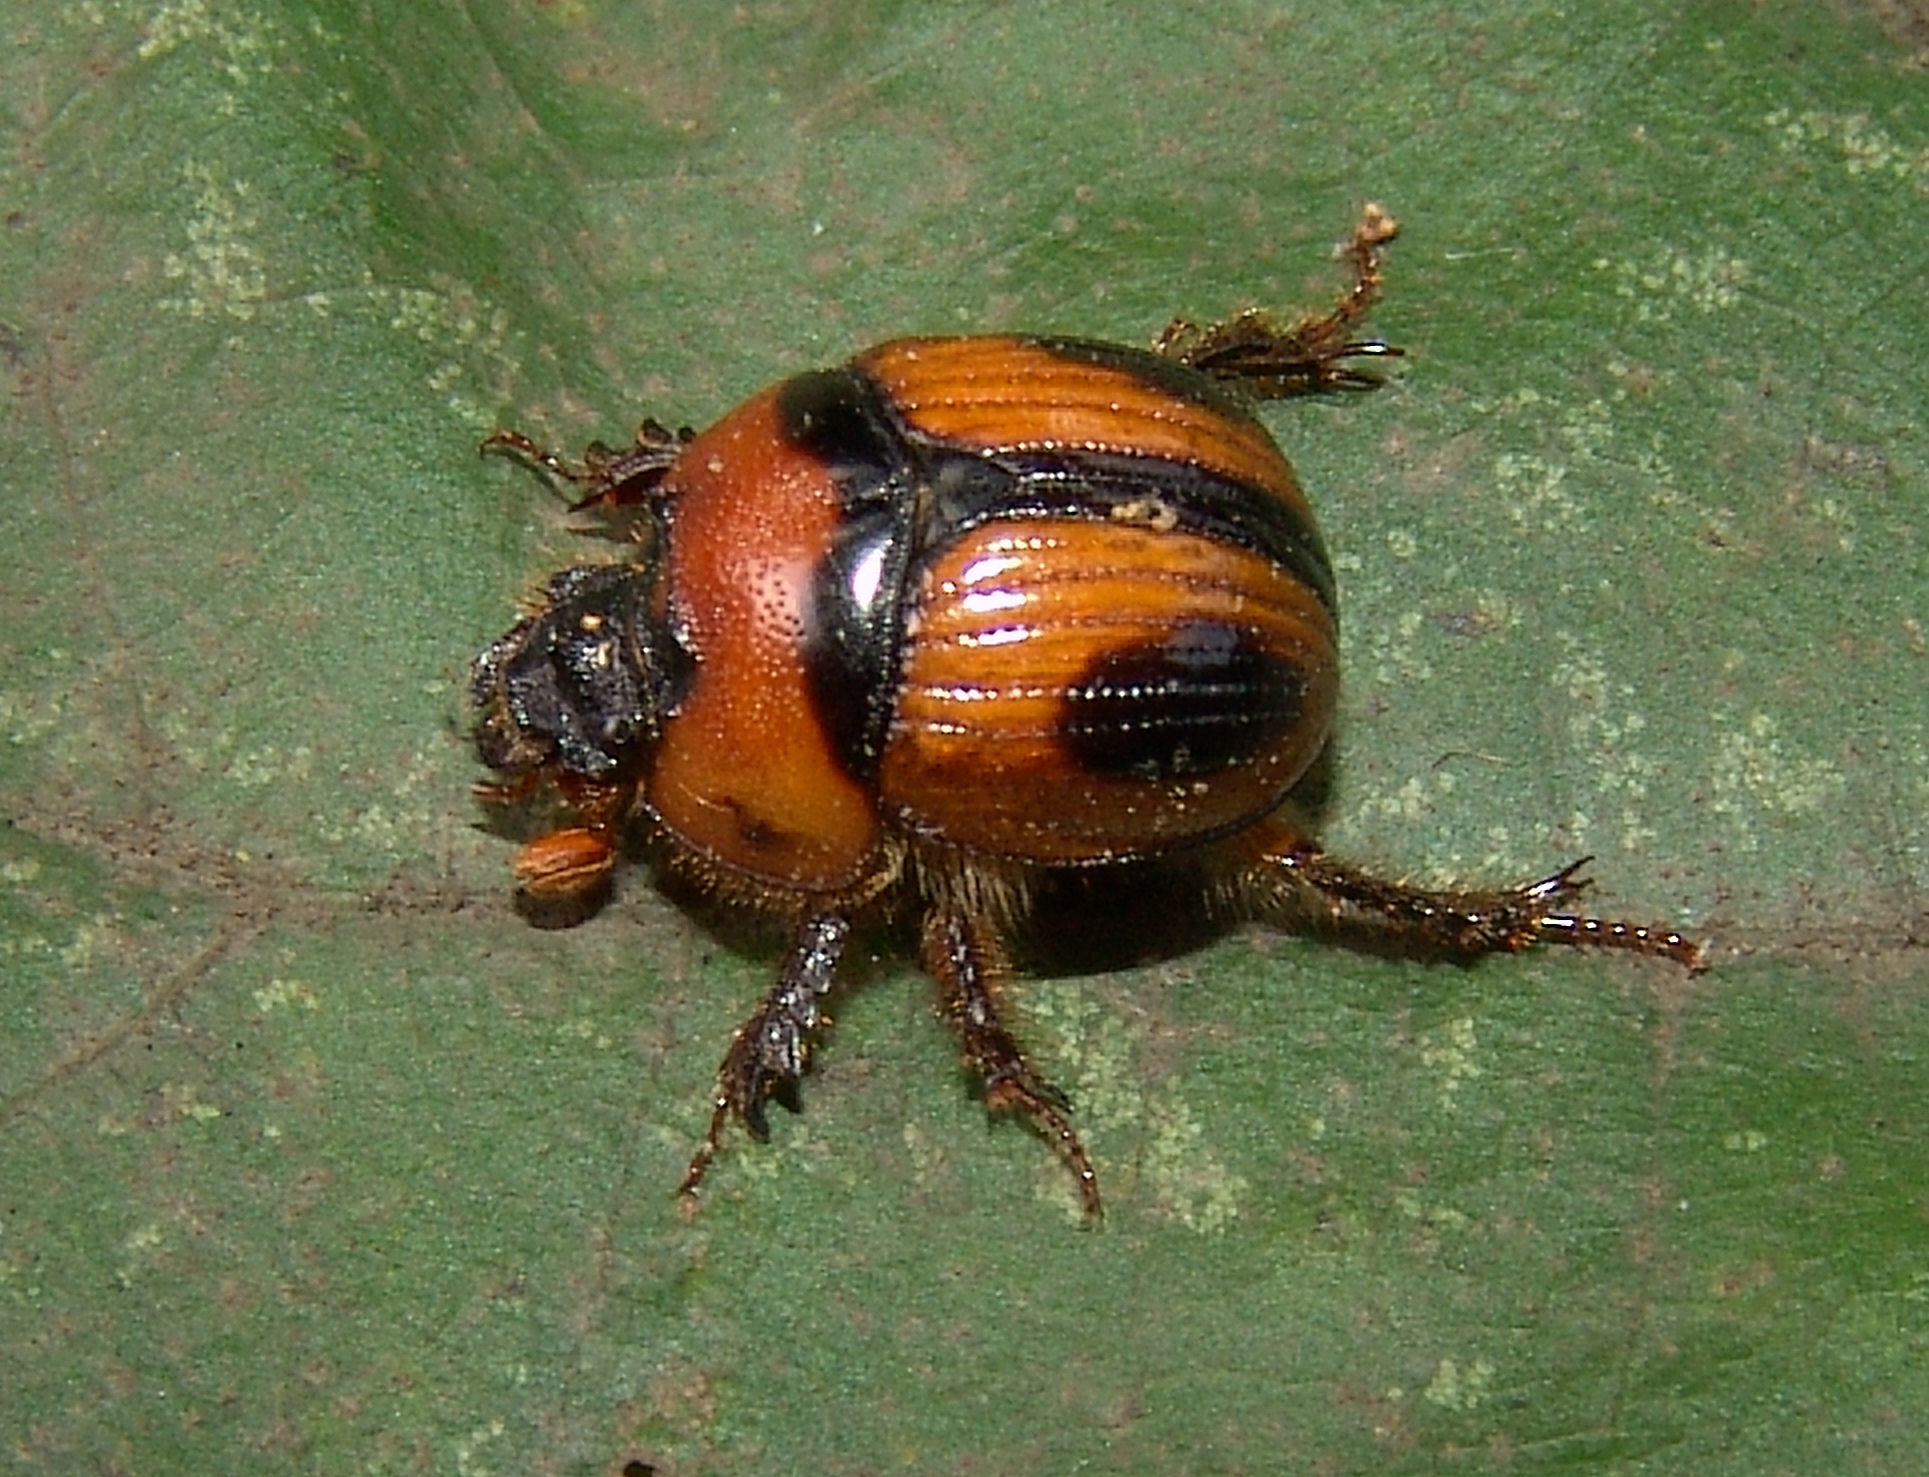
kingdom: Animalia
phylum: Arthropoda
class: Insecta
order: Coleoptera
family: Geotrupidae
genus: Bolbocerosoma
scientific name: Bolbocerosoma confusum
